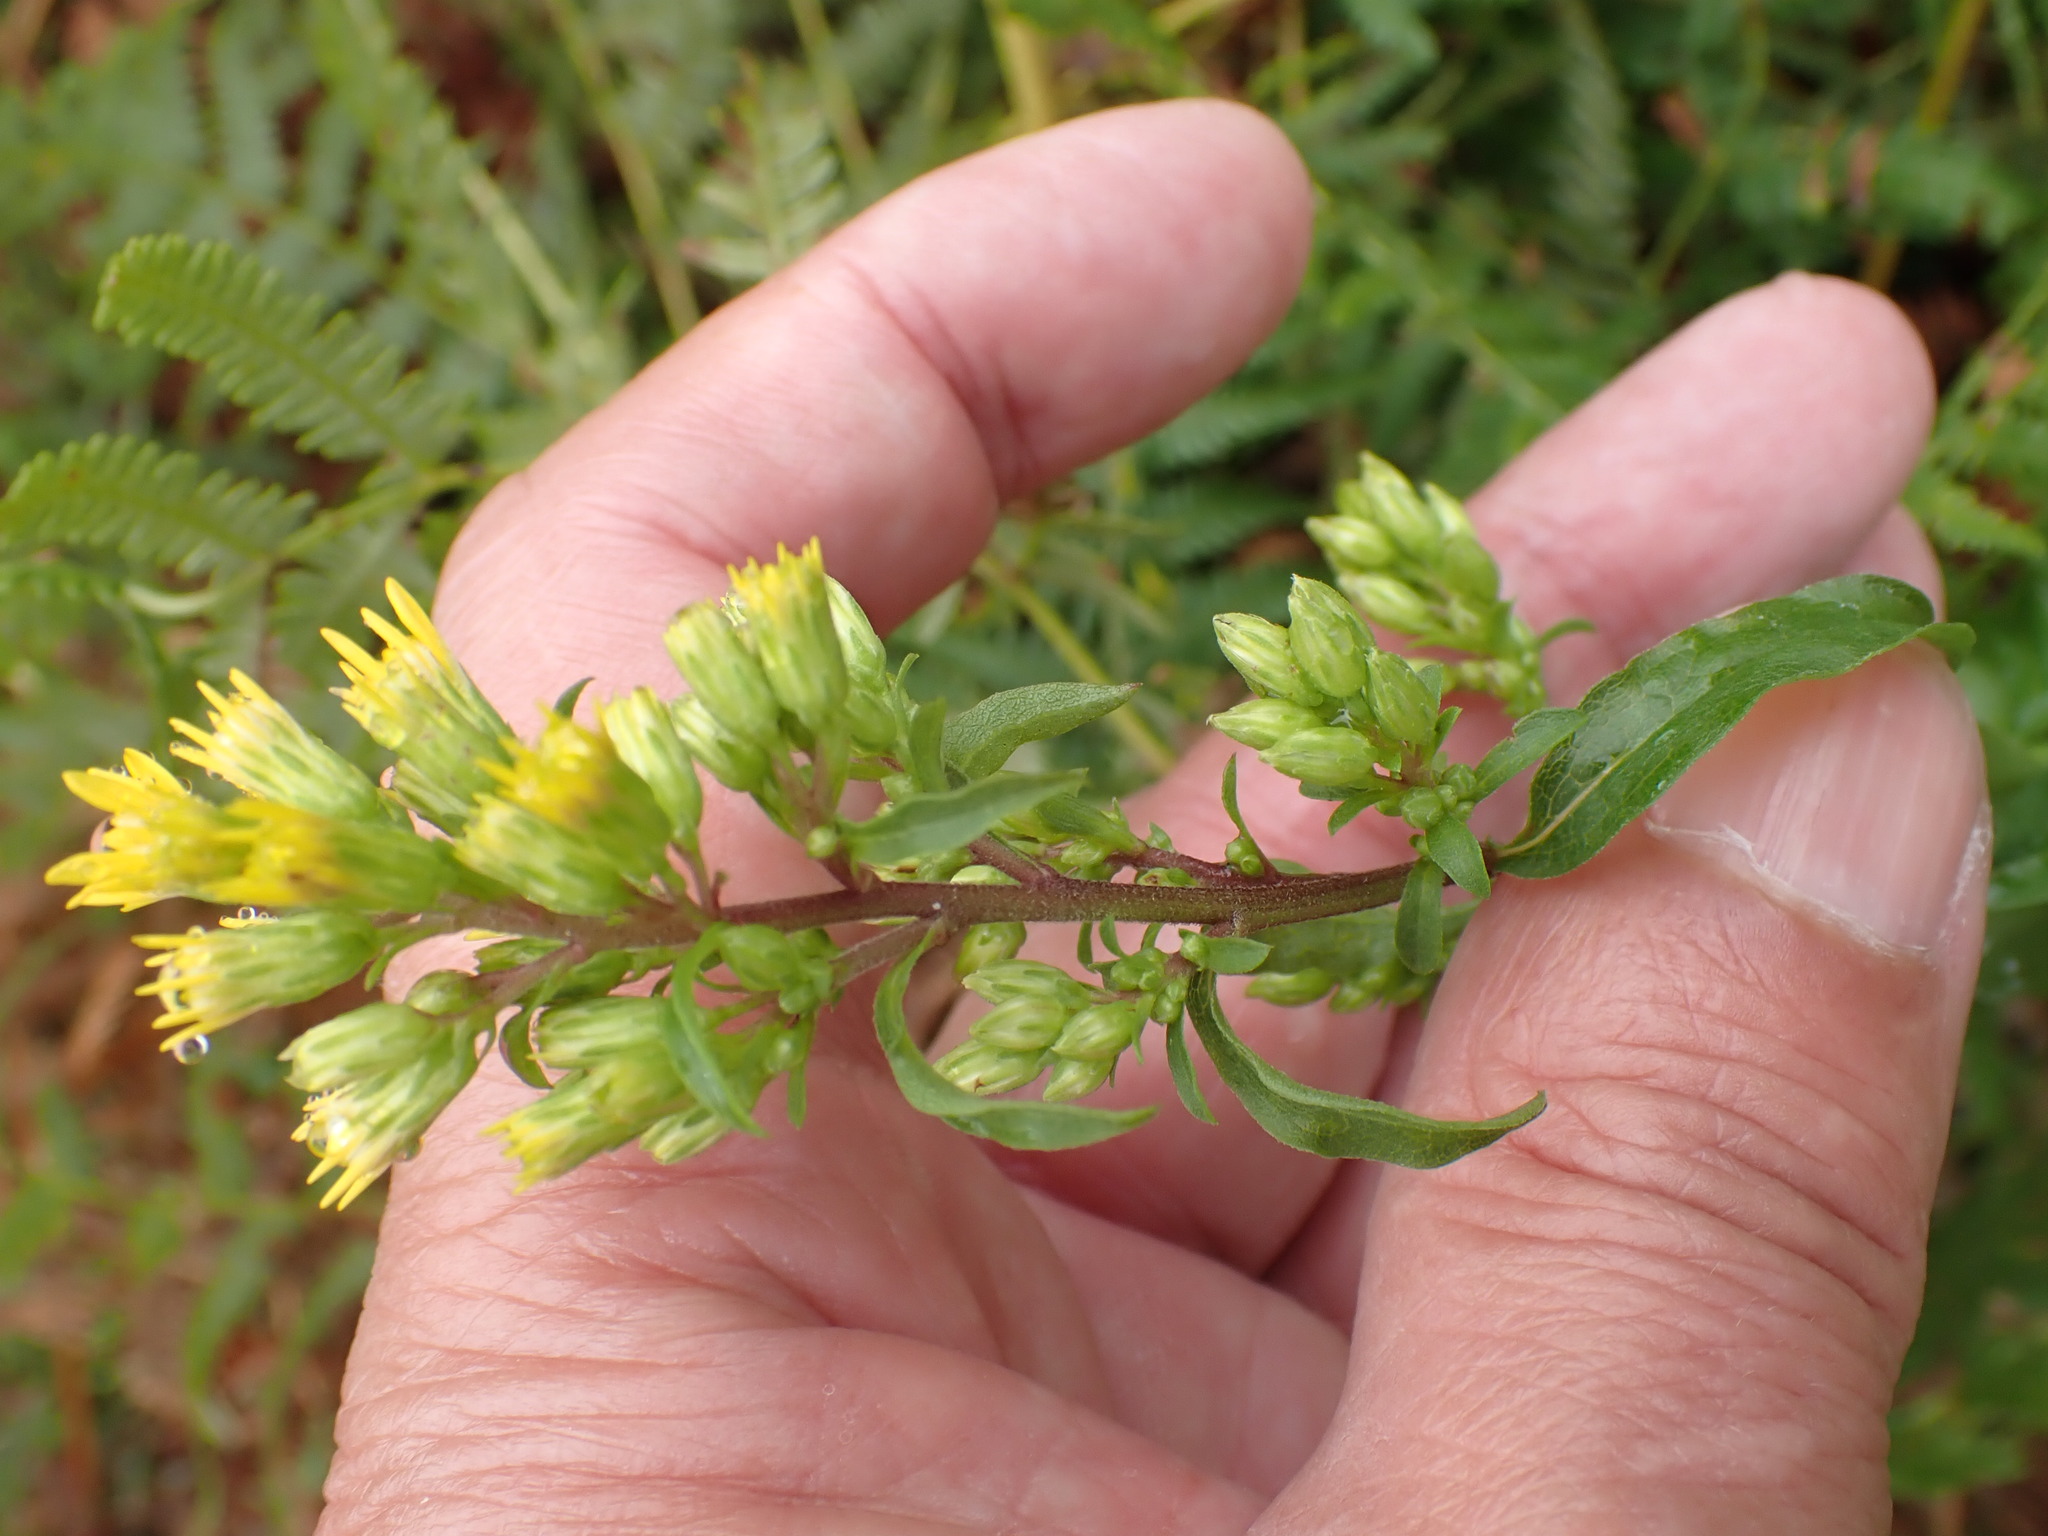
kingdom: Plantae
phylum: Tracheophyta
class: Magnoliopsida
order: Asterales
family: Asteraceae
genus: Solidago
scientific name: Solidago virgaurea
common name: Goldenrod
